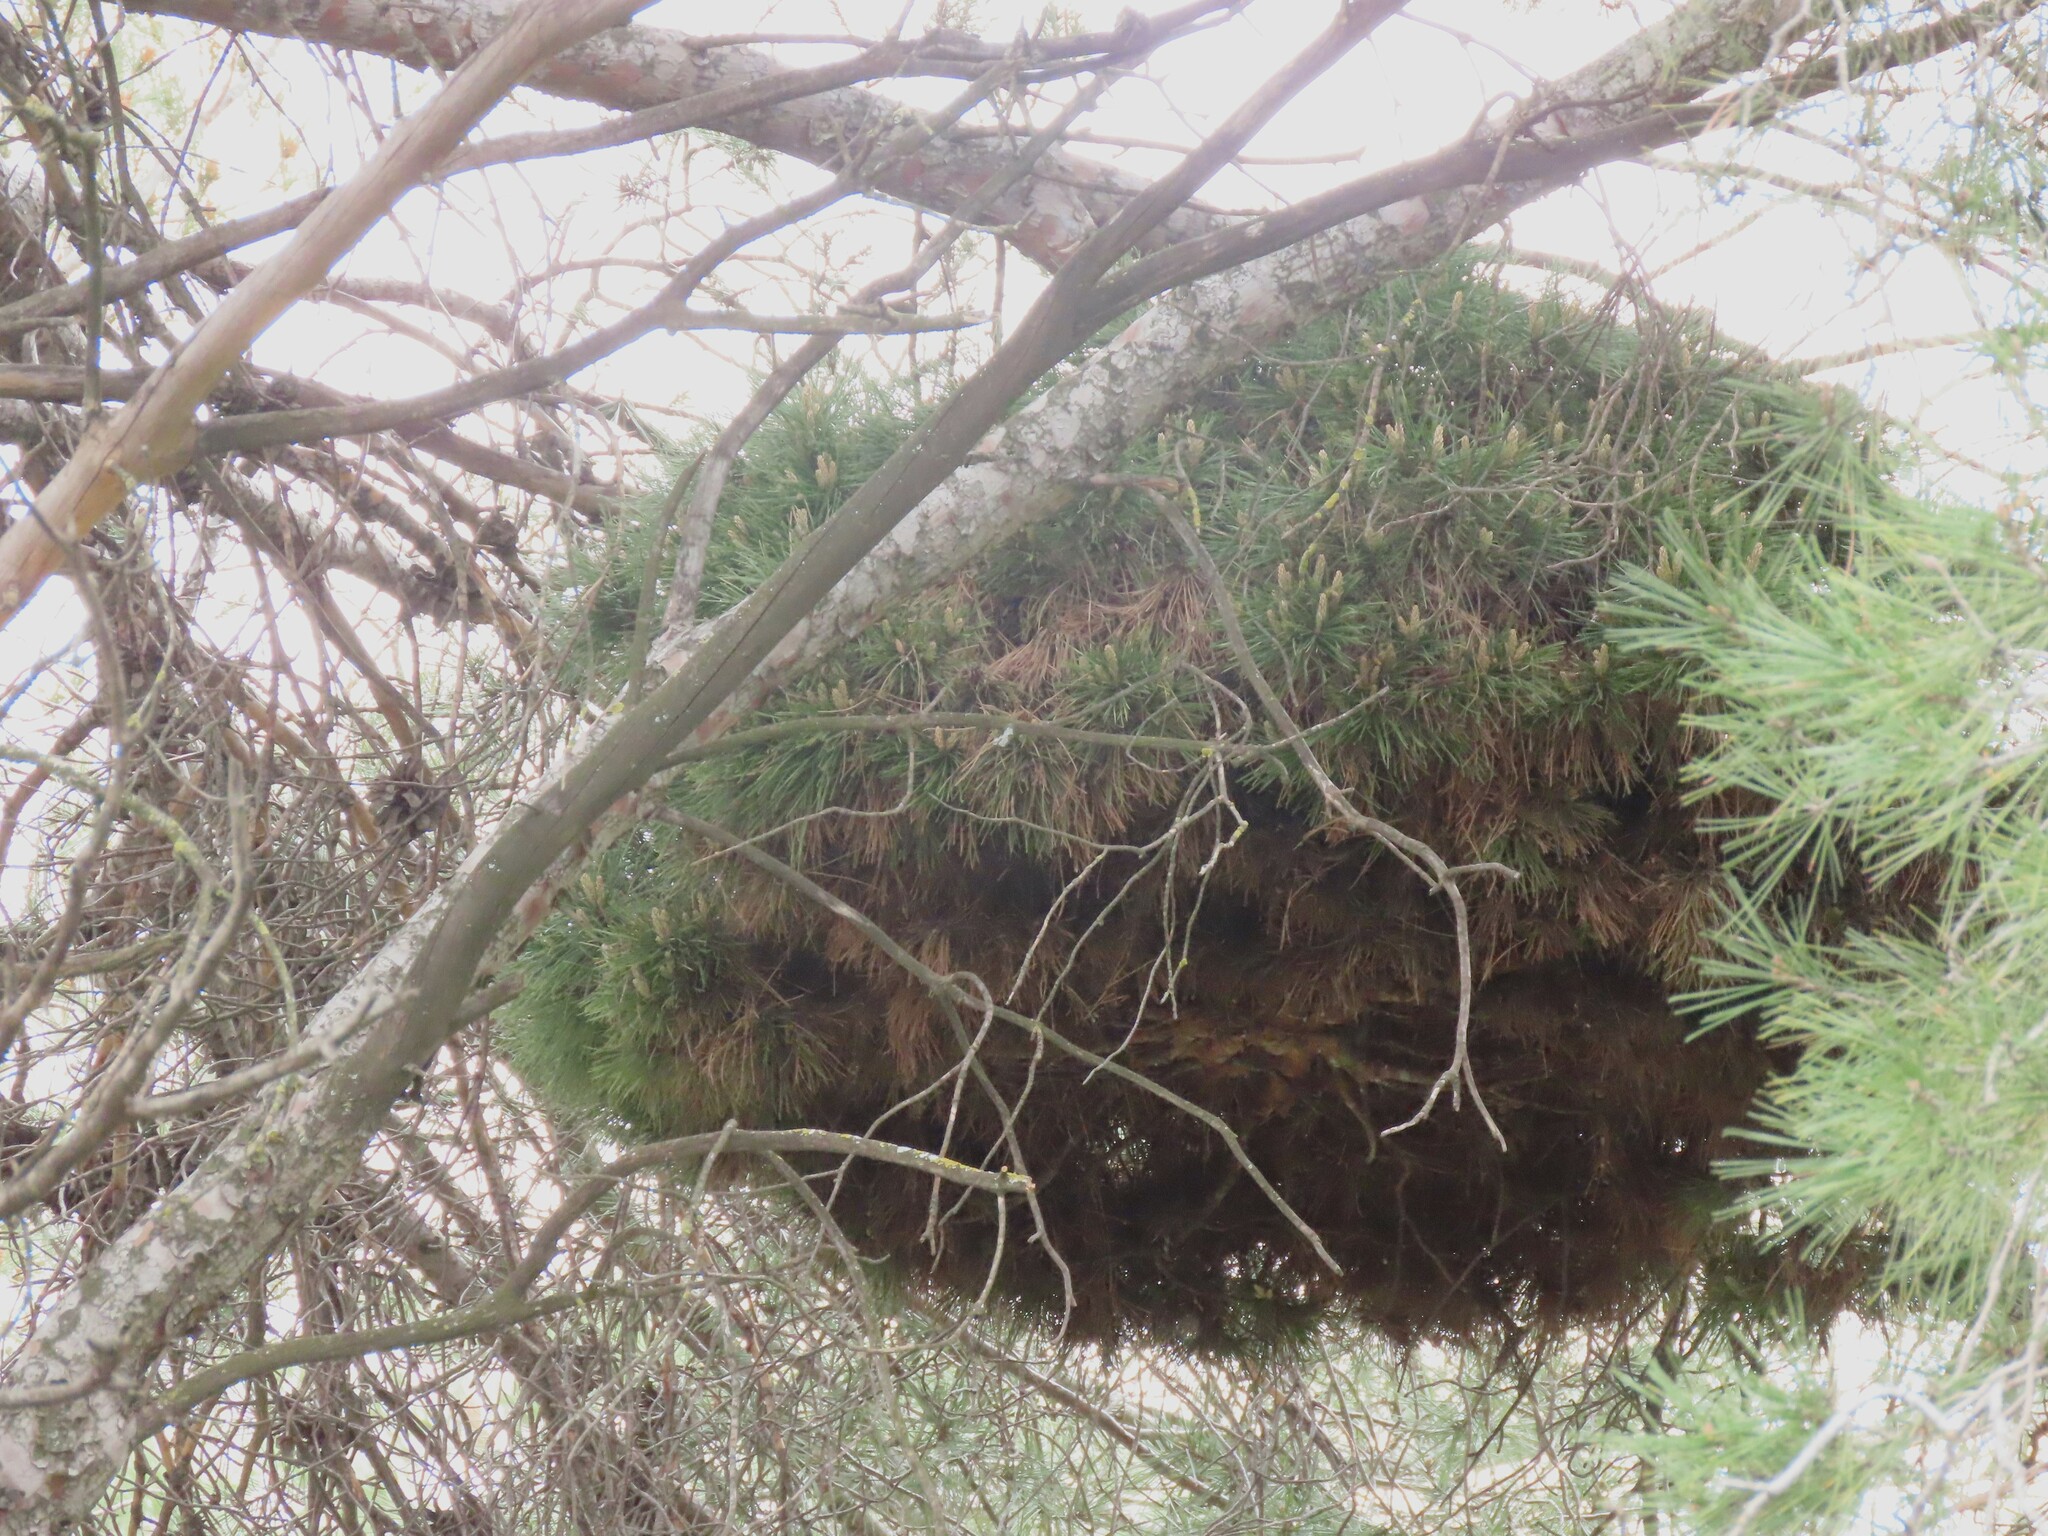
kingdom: Bacteria
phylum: Firmicutes
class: Bacilli
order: Acholeplasmatales
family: Acholeplasmataceae
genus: Phytoplasma
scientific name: Phytoplasma pini
